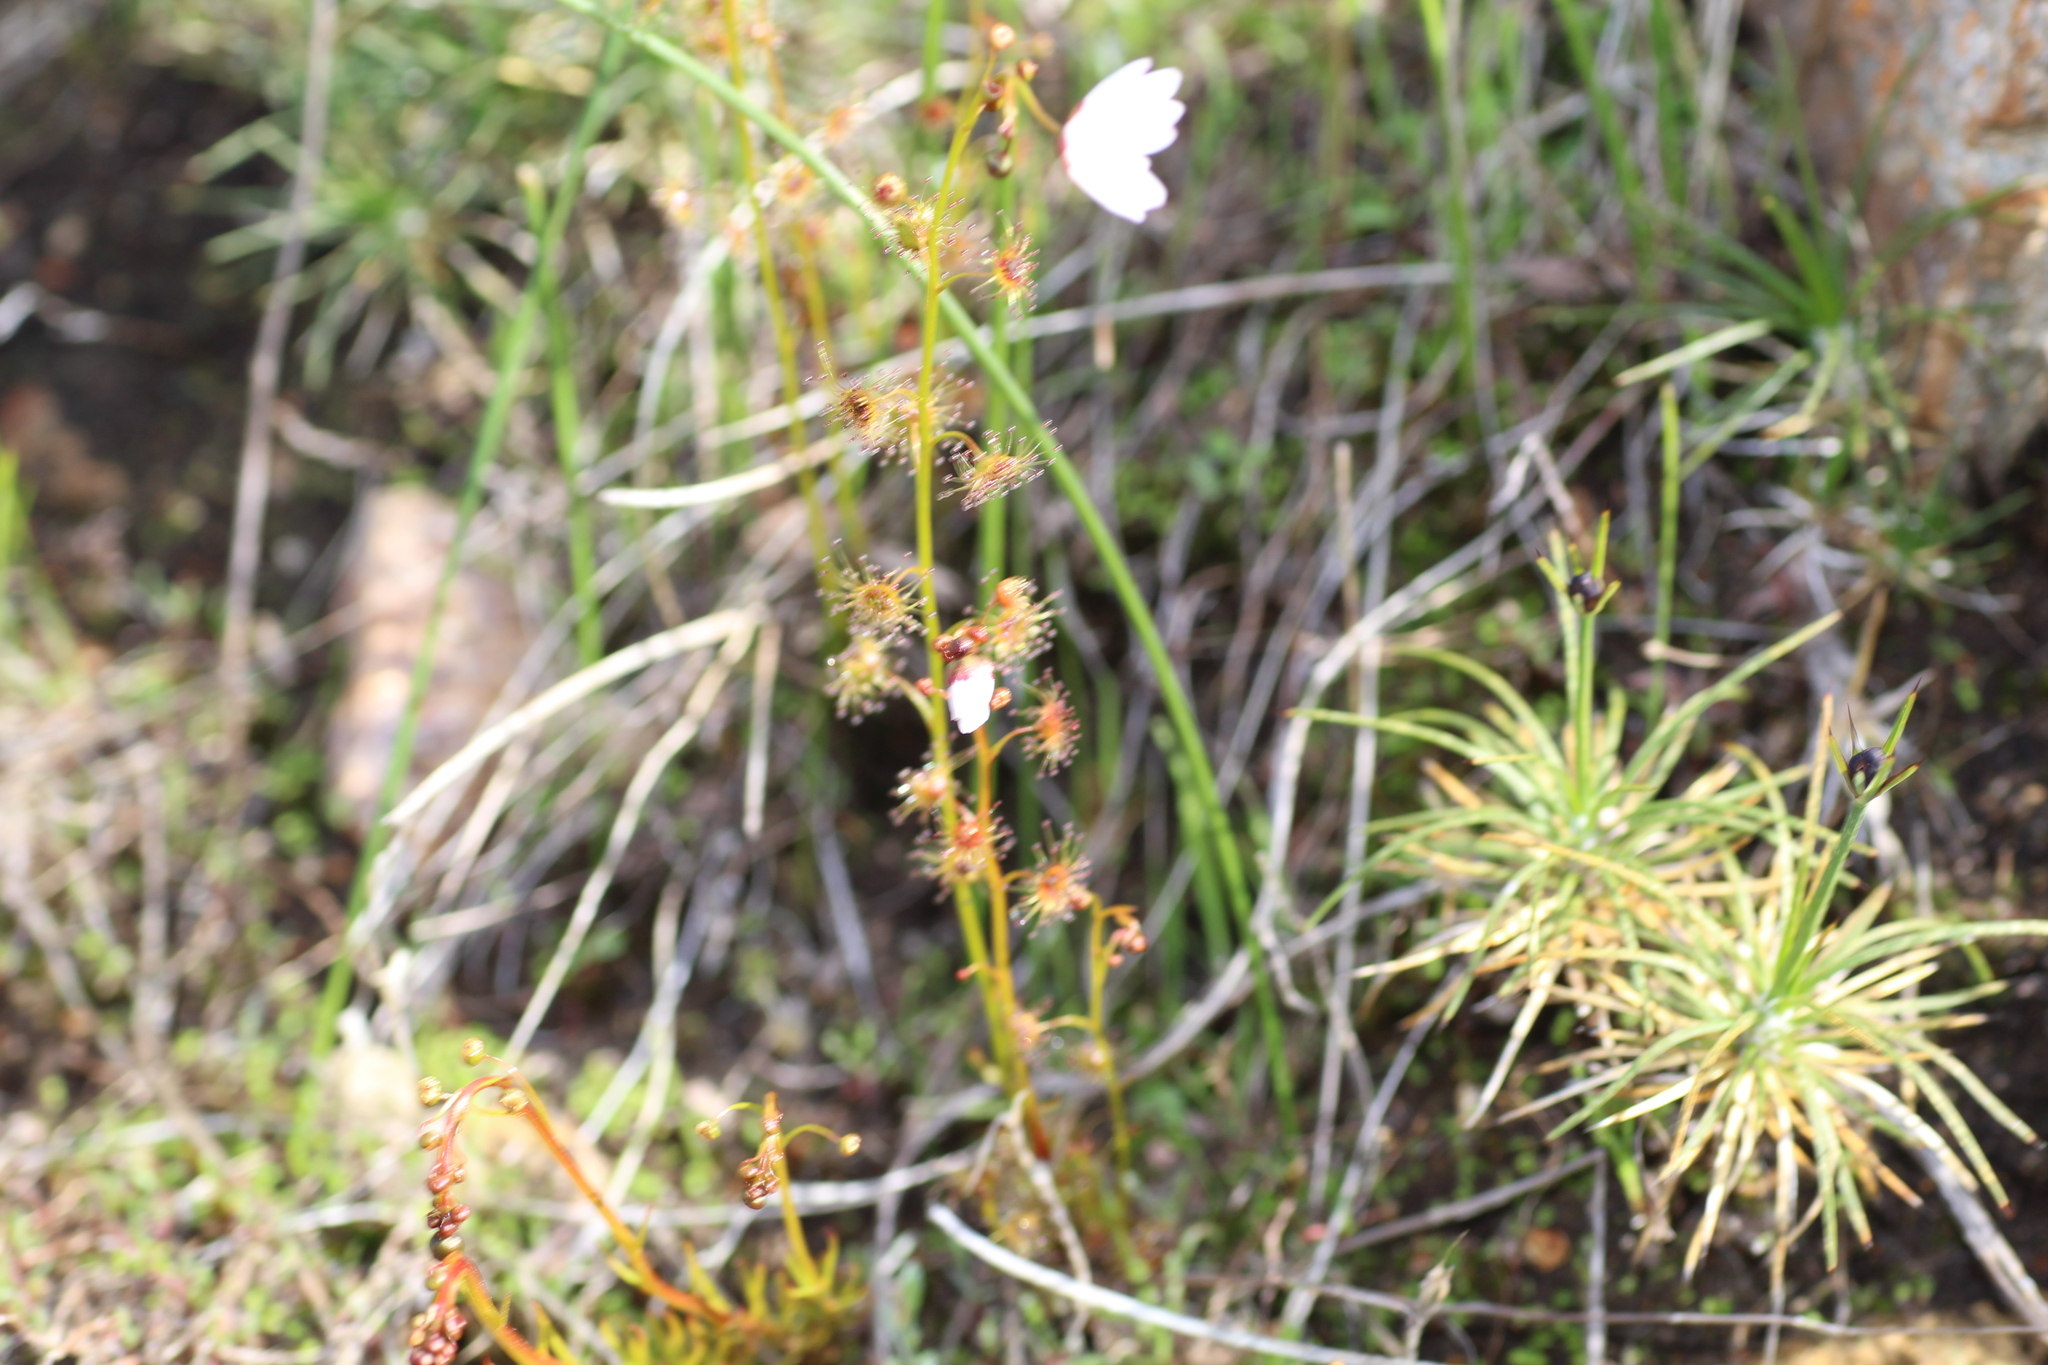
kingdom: Plantae
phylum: Tracheophyta
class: Magnoliopsida
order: Caryophyllales
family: Droseraceae
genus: Drosera
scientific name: Drosera heterophylla
